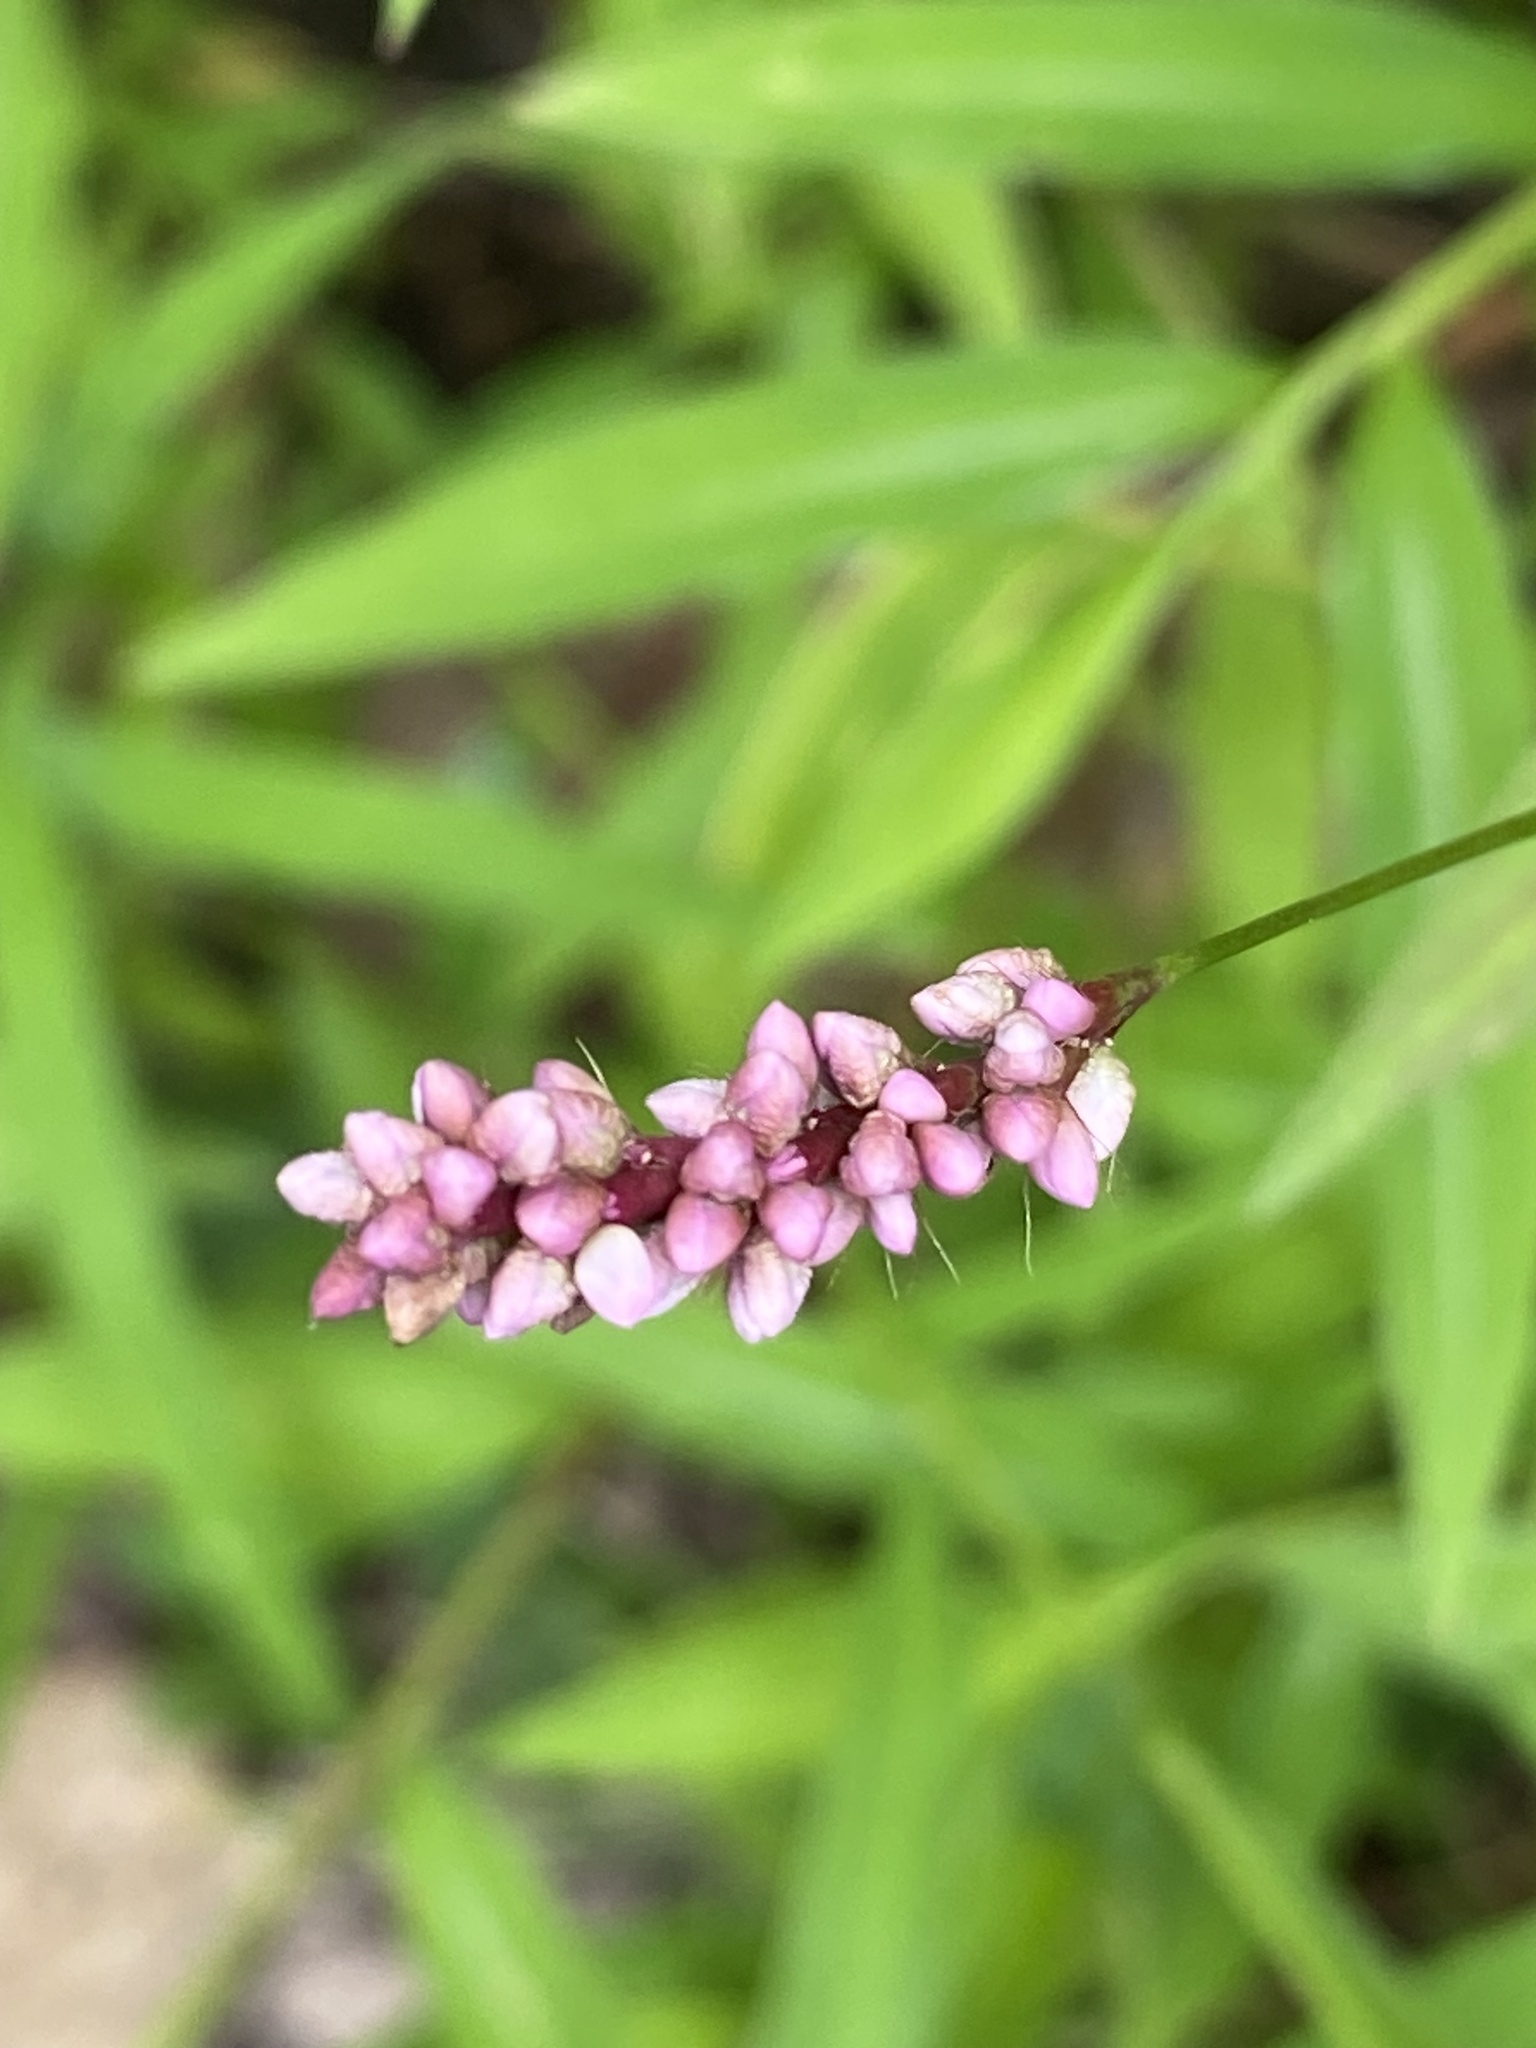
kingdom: Plantae
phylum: Tracheophyta
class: Magnoliopsida
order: Caryophyllales
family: Polygonaceae
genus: Persicaria
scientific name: Persicaria longiseta
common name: Bristly lady's-thumb
